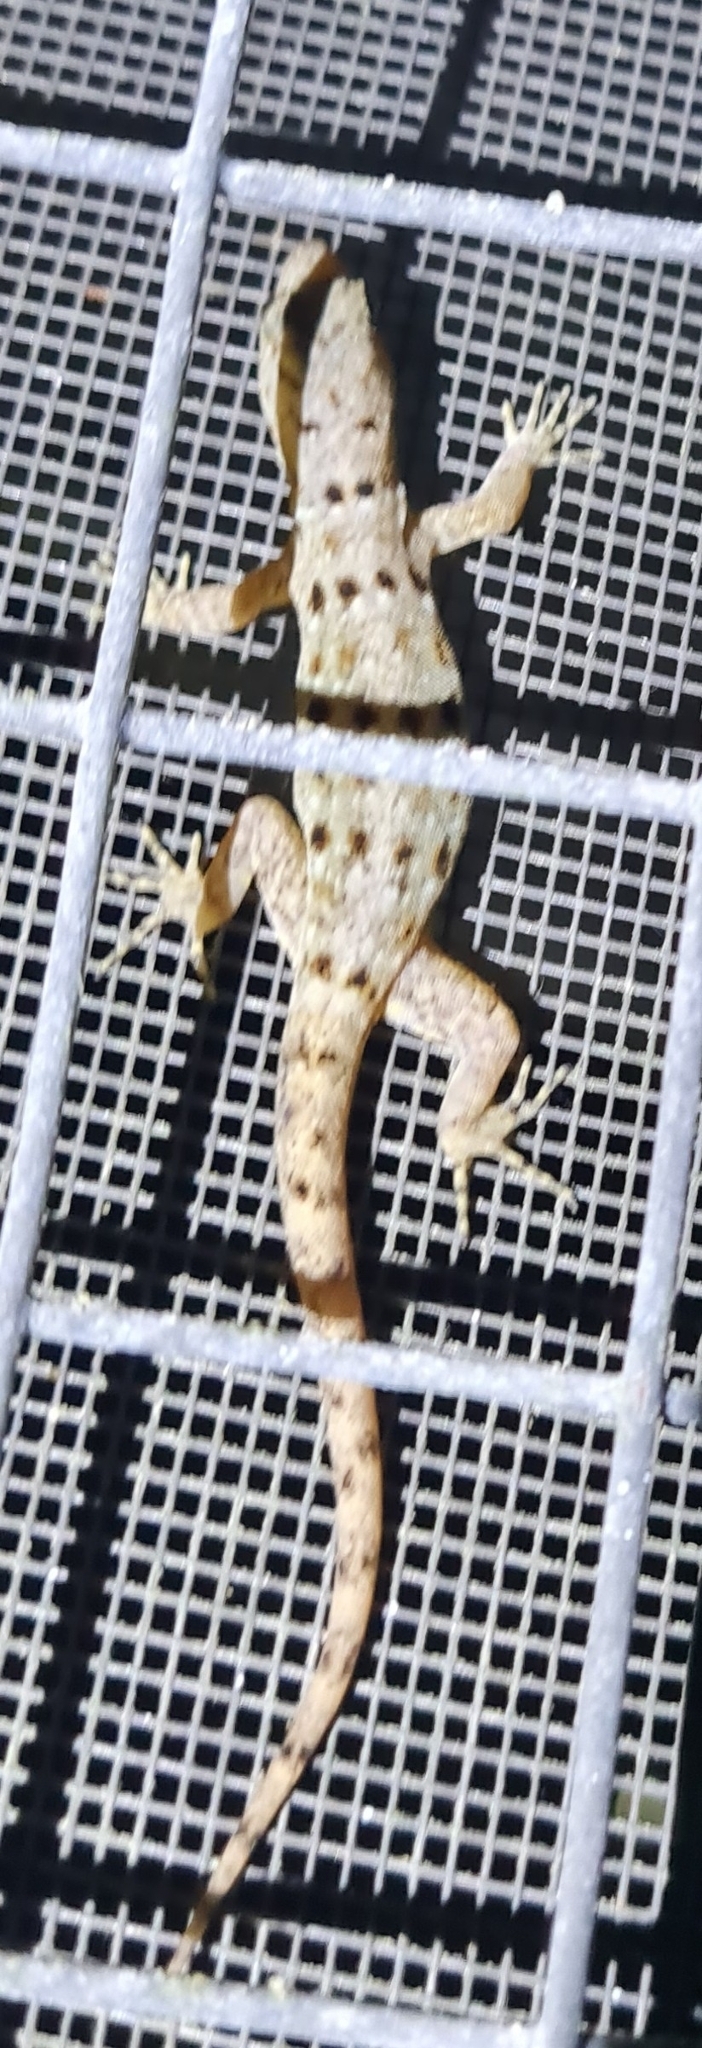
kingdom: Animalia
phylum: Chordata
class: Squamata
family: Sphaerodactylidae
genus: Gonatodes
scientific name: Gonatodes albogularis
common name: Yellow-headed gecko
